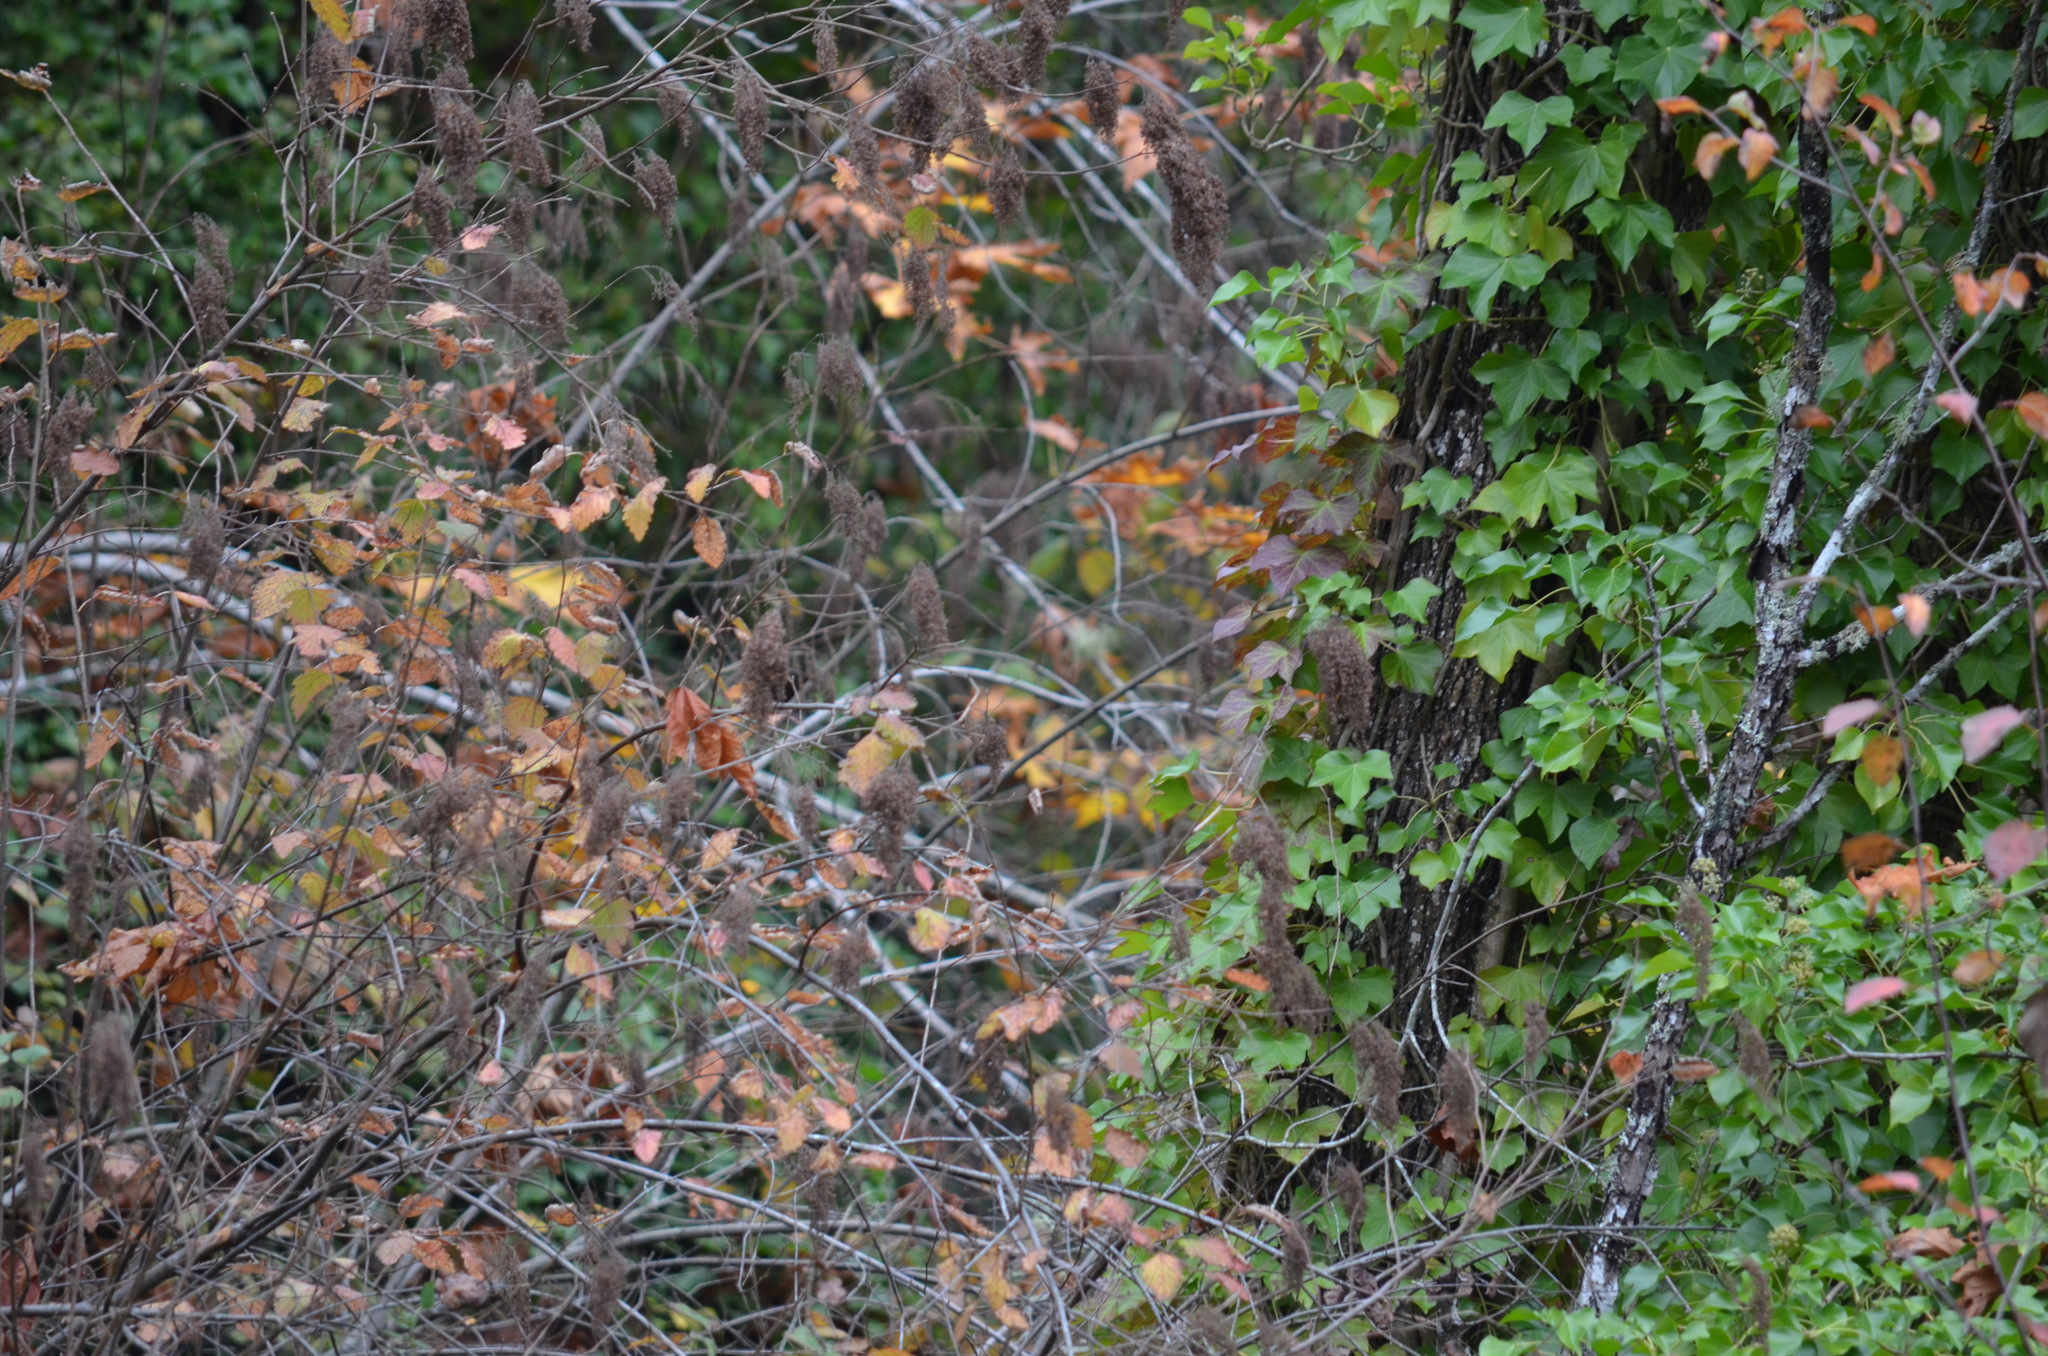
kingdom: Plantae
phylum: Tracheophyta
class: Magnoliopsida
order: Apiales
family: Araliaceae
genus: Hedera
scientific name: Hedera helix
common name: Ivy
